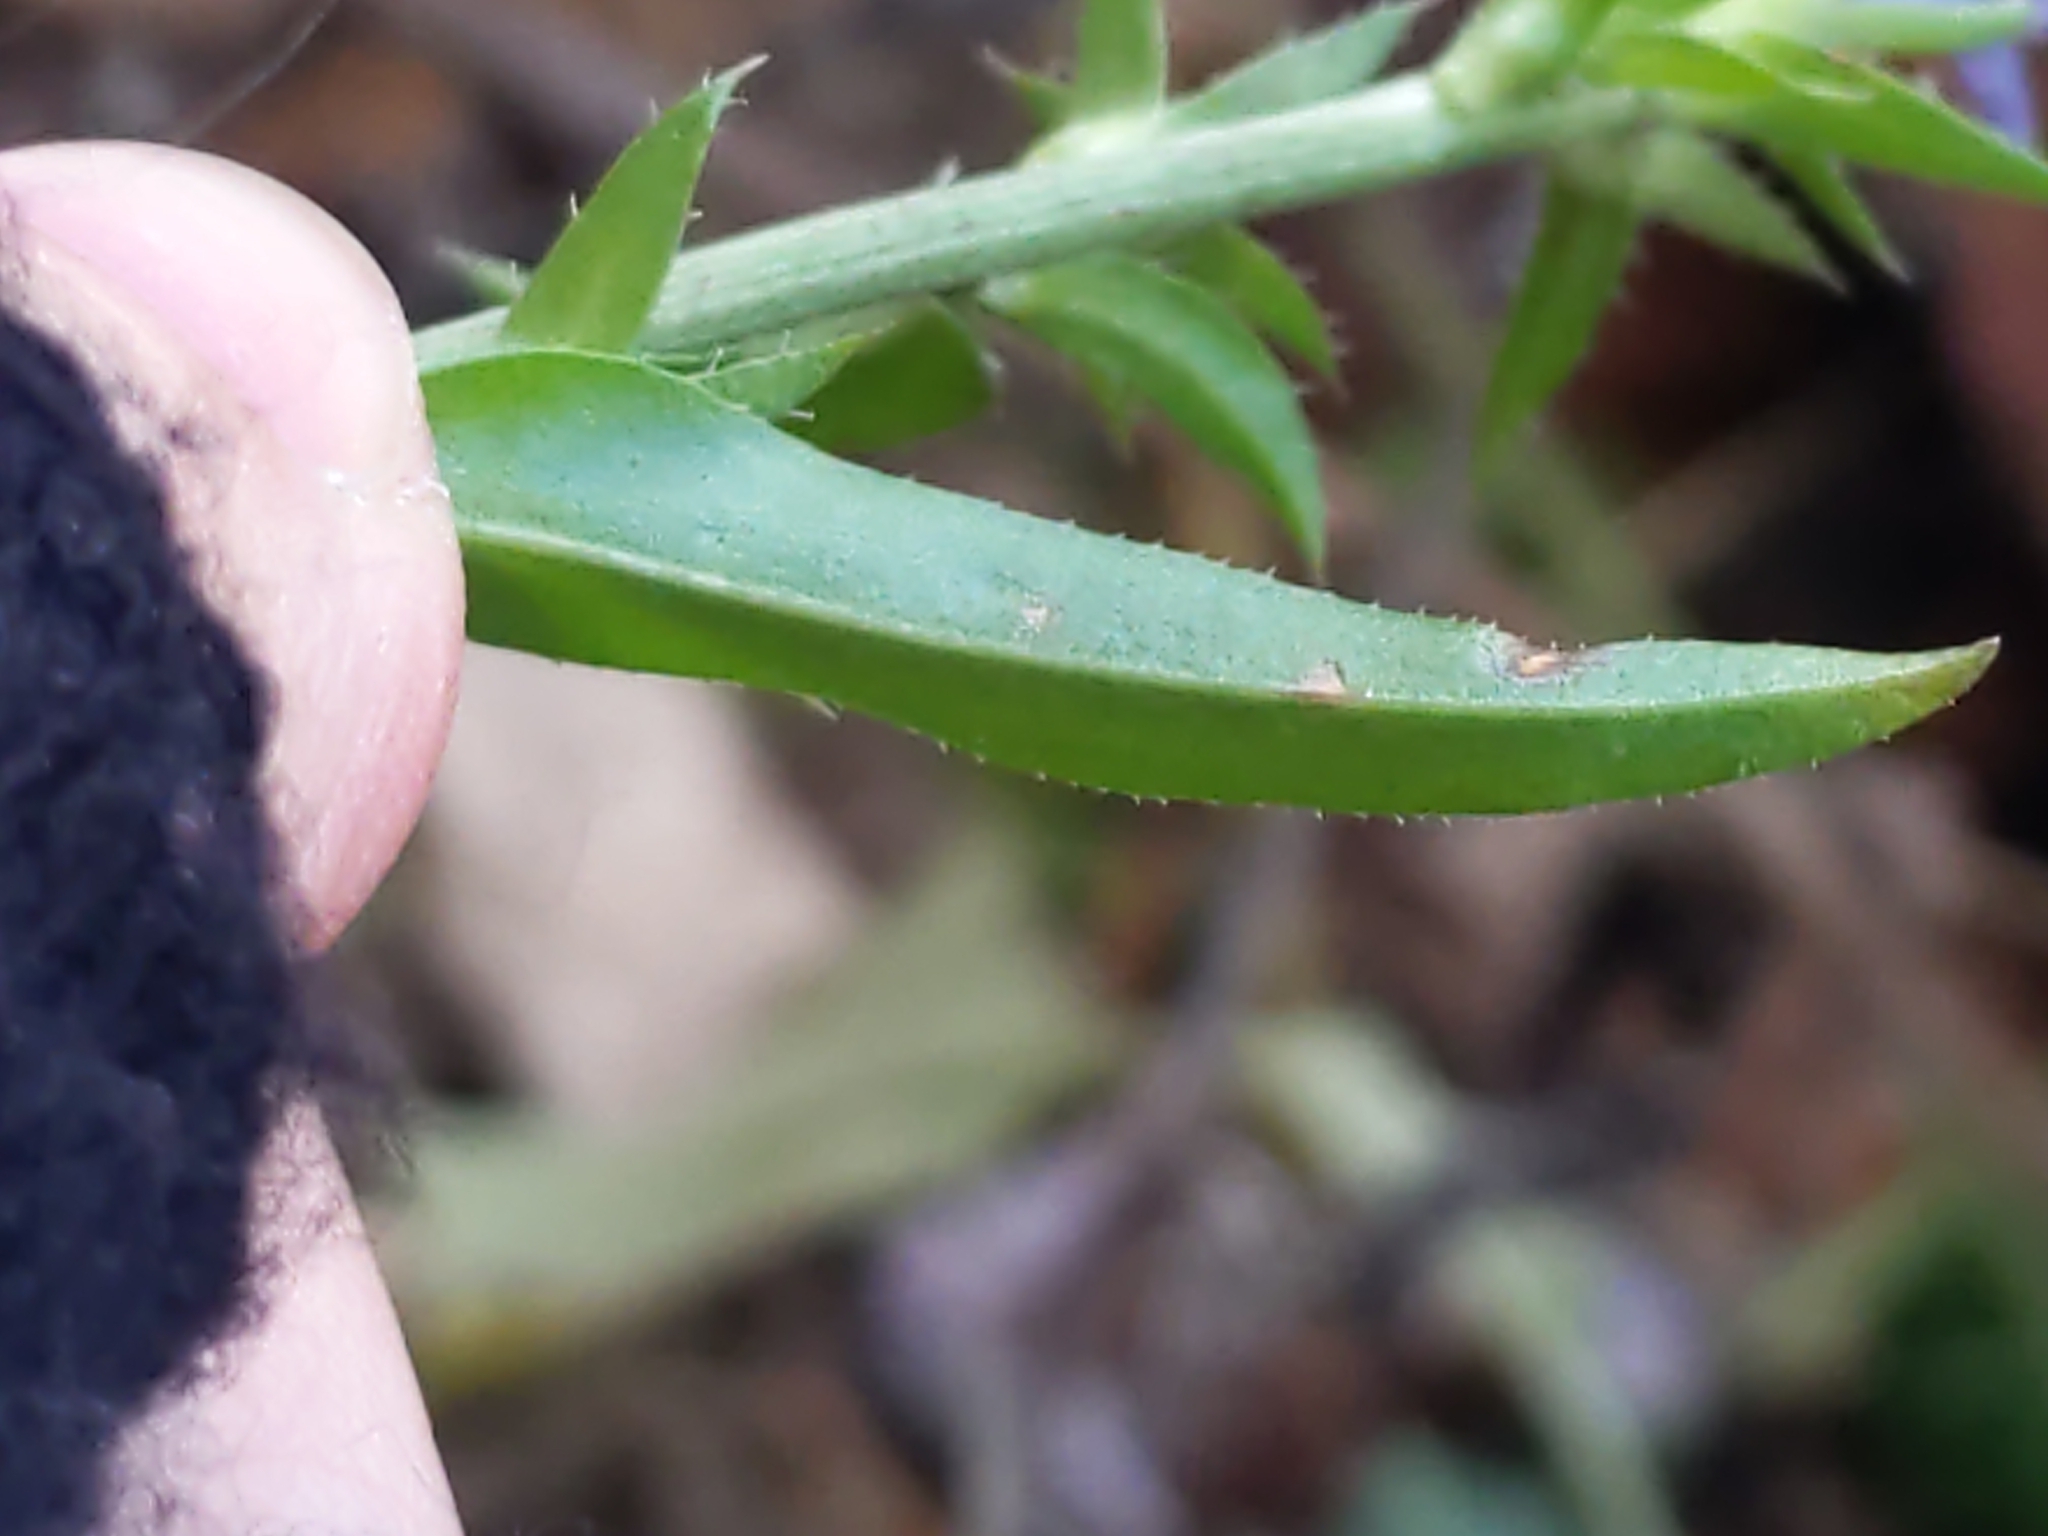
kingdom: Plantae
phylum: Tracheophyta
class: Magnoliopsida
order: Asterales
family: Asteraceae
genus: Cichorium
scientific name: Cichorium intybus
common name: Chicory
